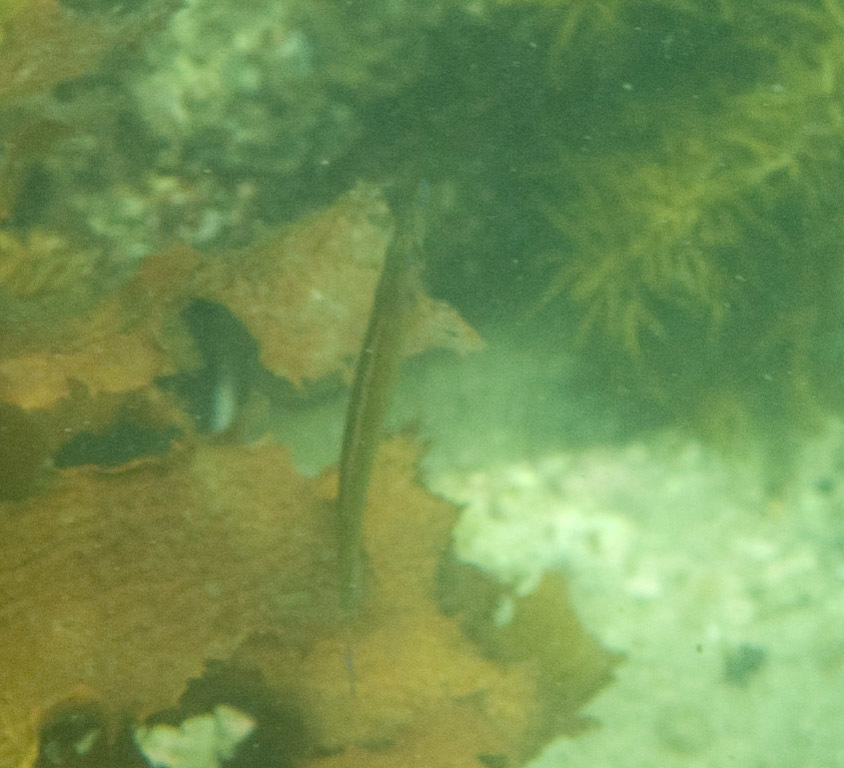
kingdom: Animalia
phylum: Chordata
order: Perciformes
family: Odacidae
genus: Siphonognathus
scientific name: Siphonognathus
